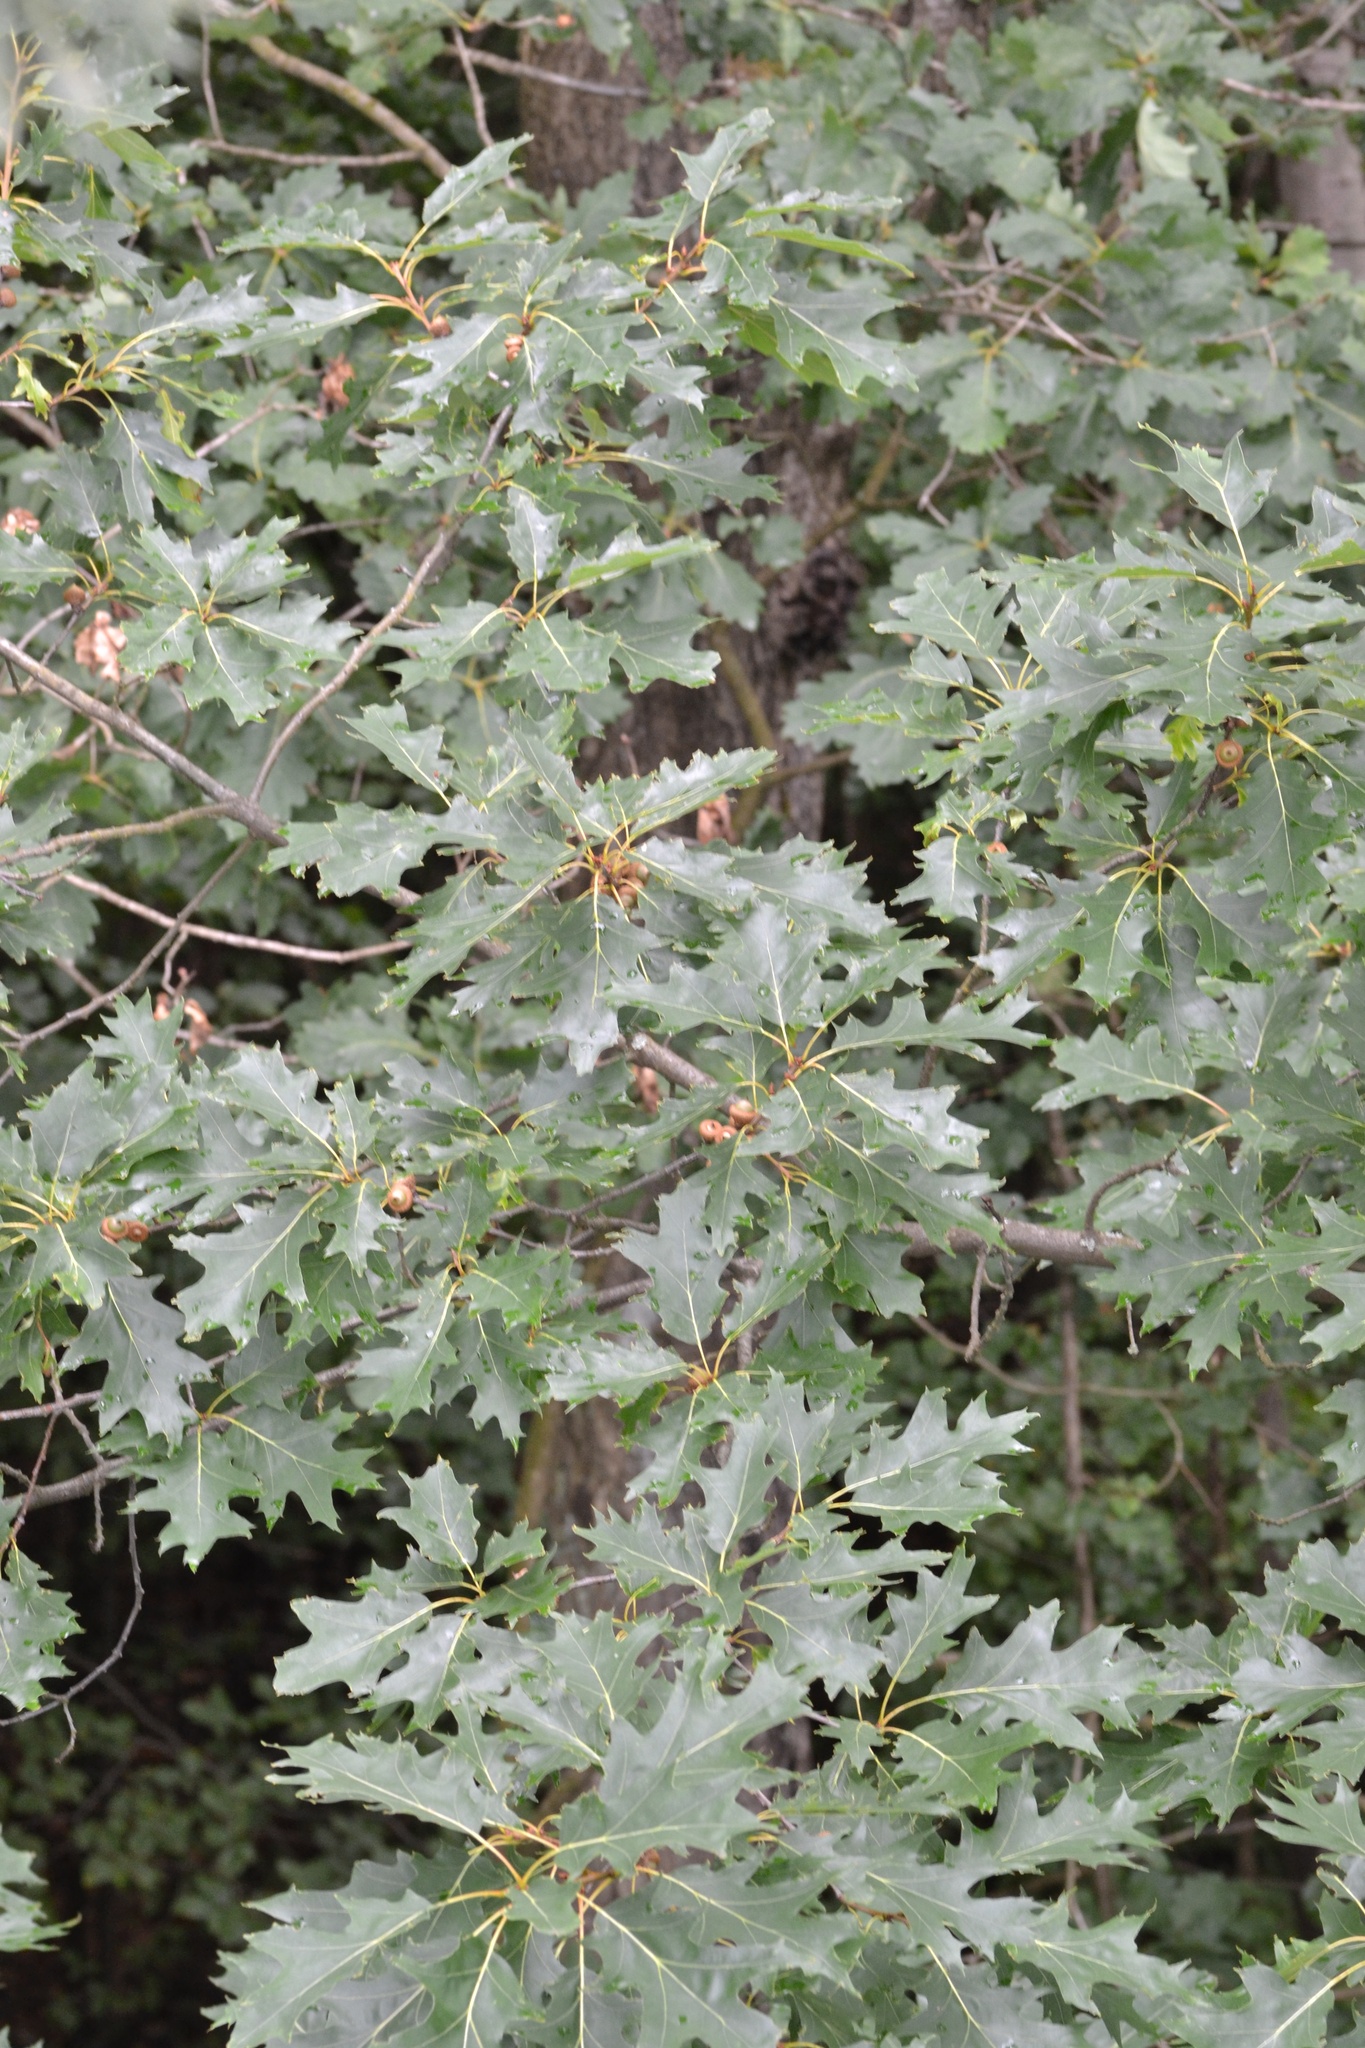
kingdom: Plantae
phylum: Tracheophyta
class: Magnoliopsida
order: Fagales
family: Fagaceae
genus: Quercus
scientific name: Quercus rubra
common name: Red oak
